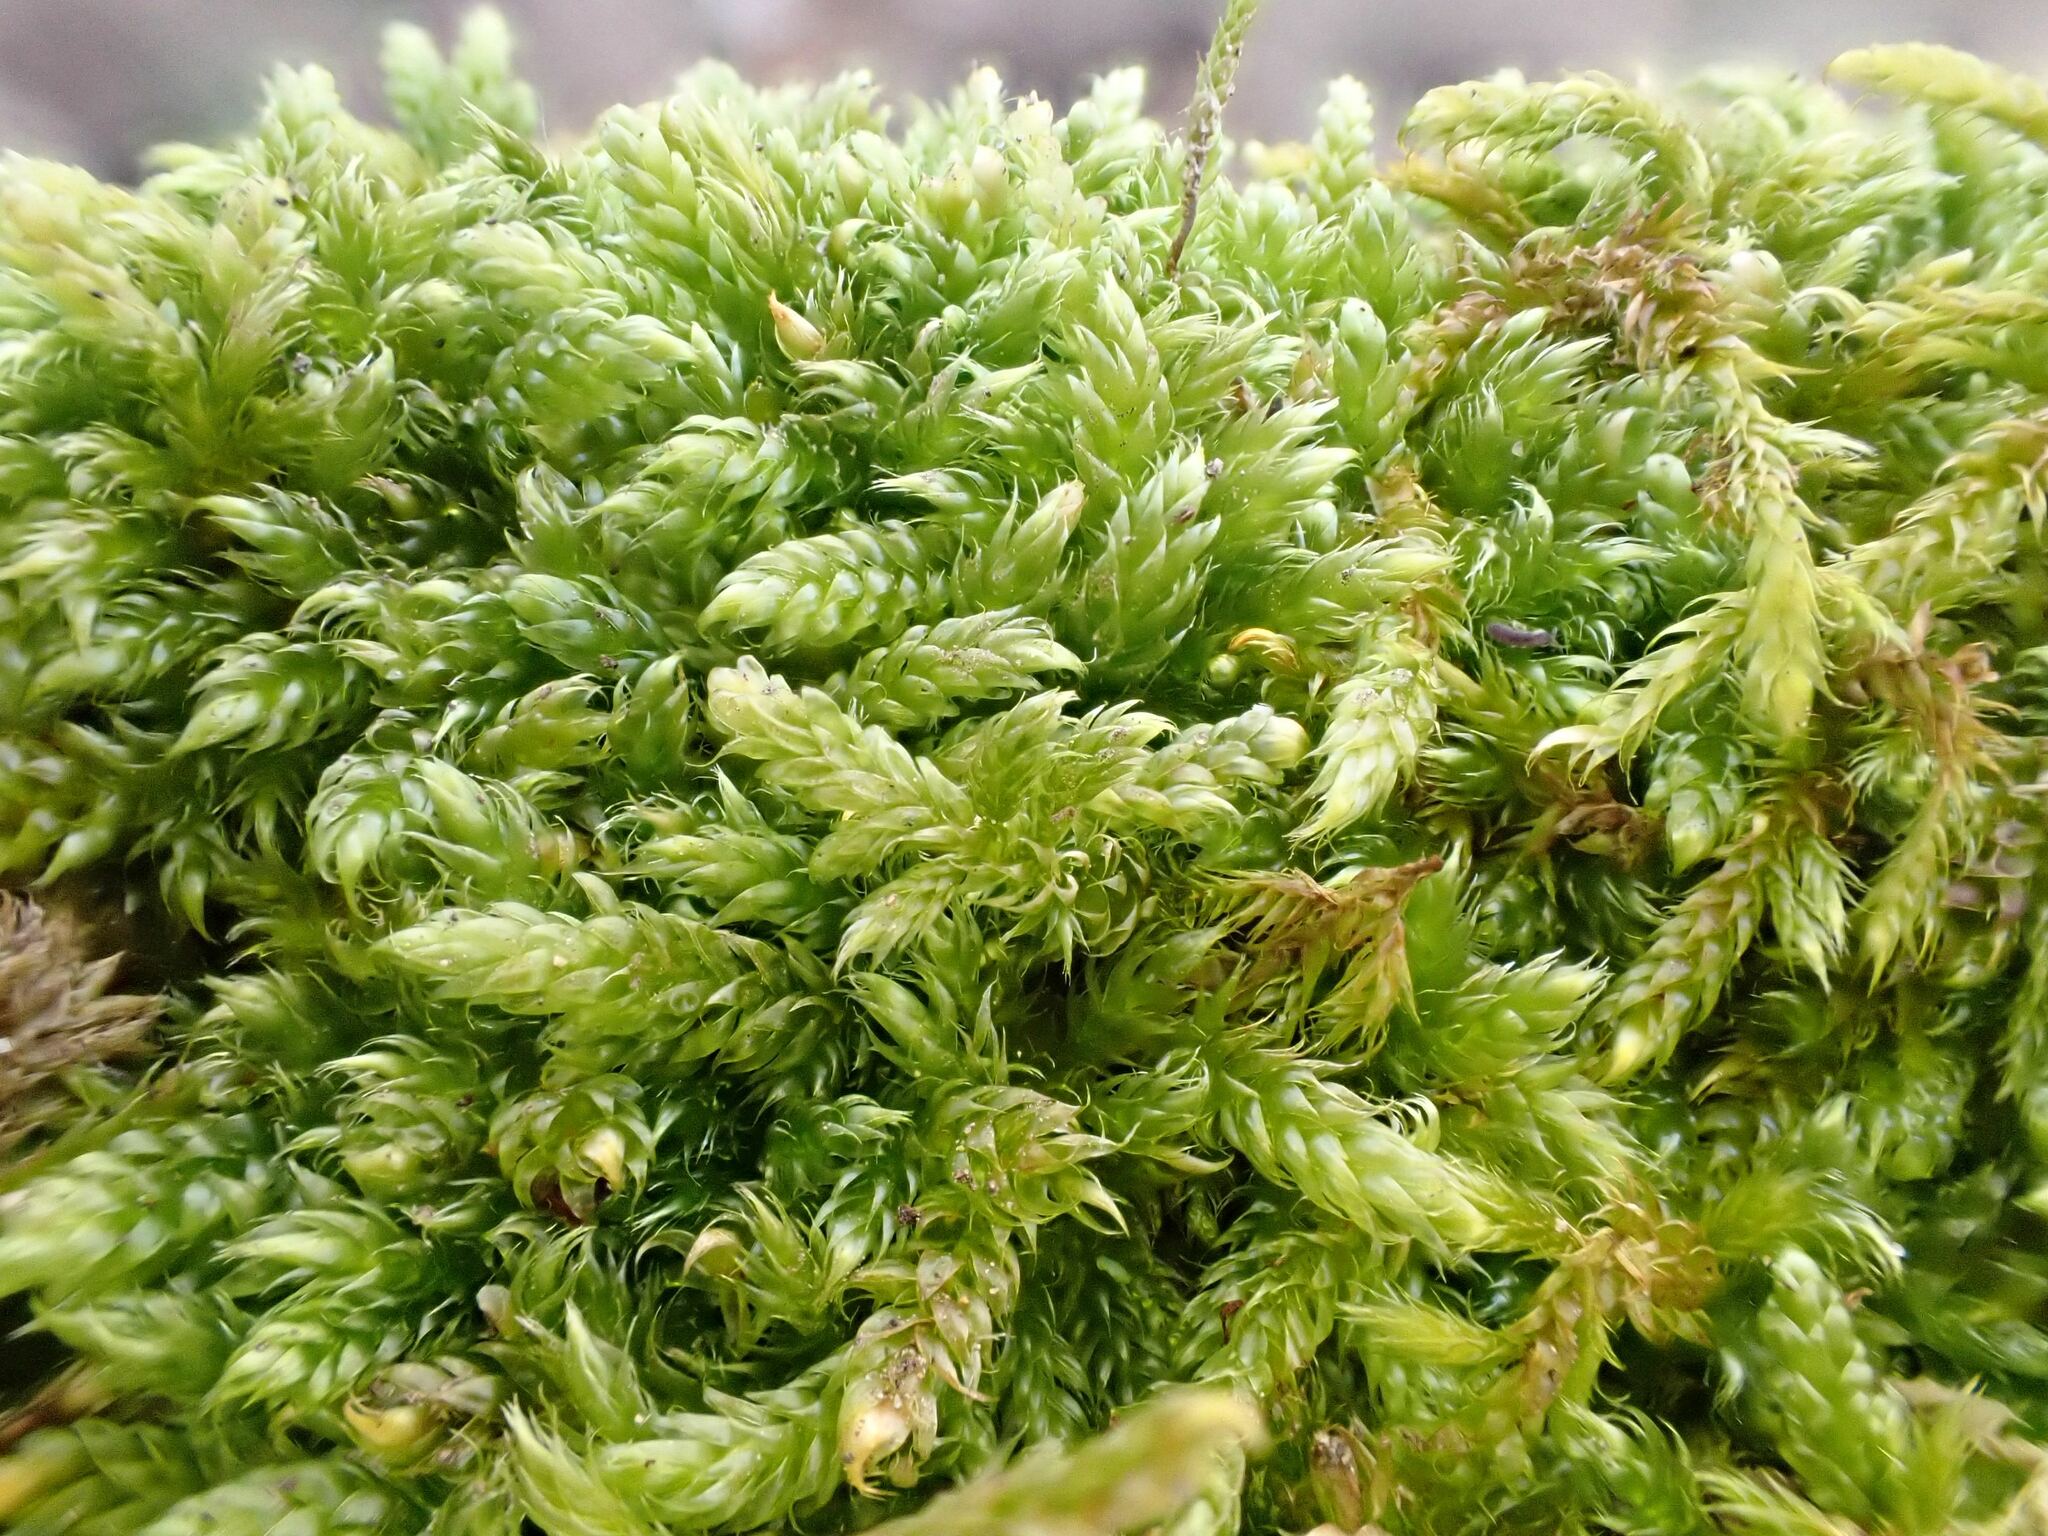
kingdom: Plantae
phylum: Bryophyta
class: Bryopsida
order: Hypnales
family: Hypnaceae
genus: Hypnum
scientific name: Hypnum cupressiforme
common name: Cypress-leaved plait-moss
